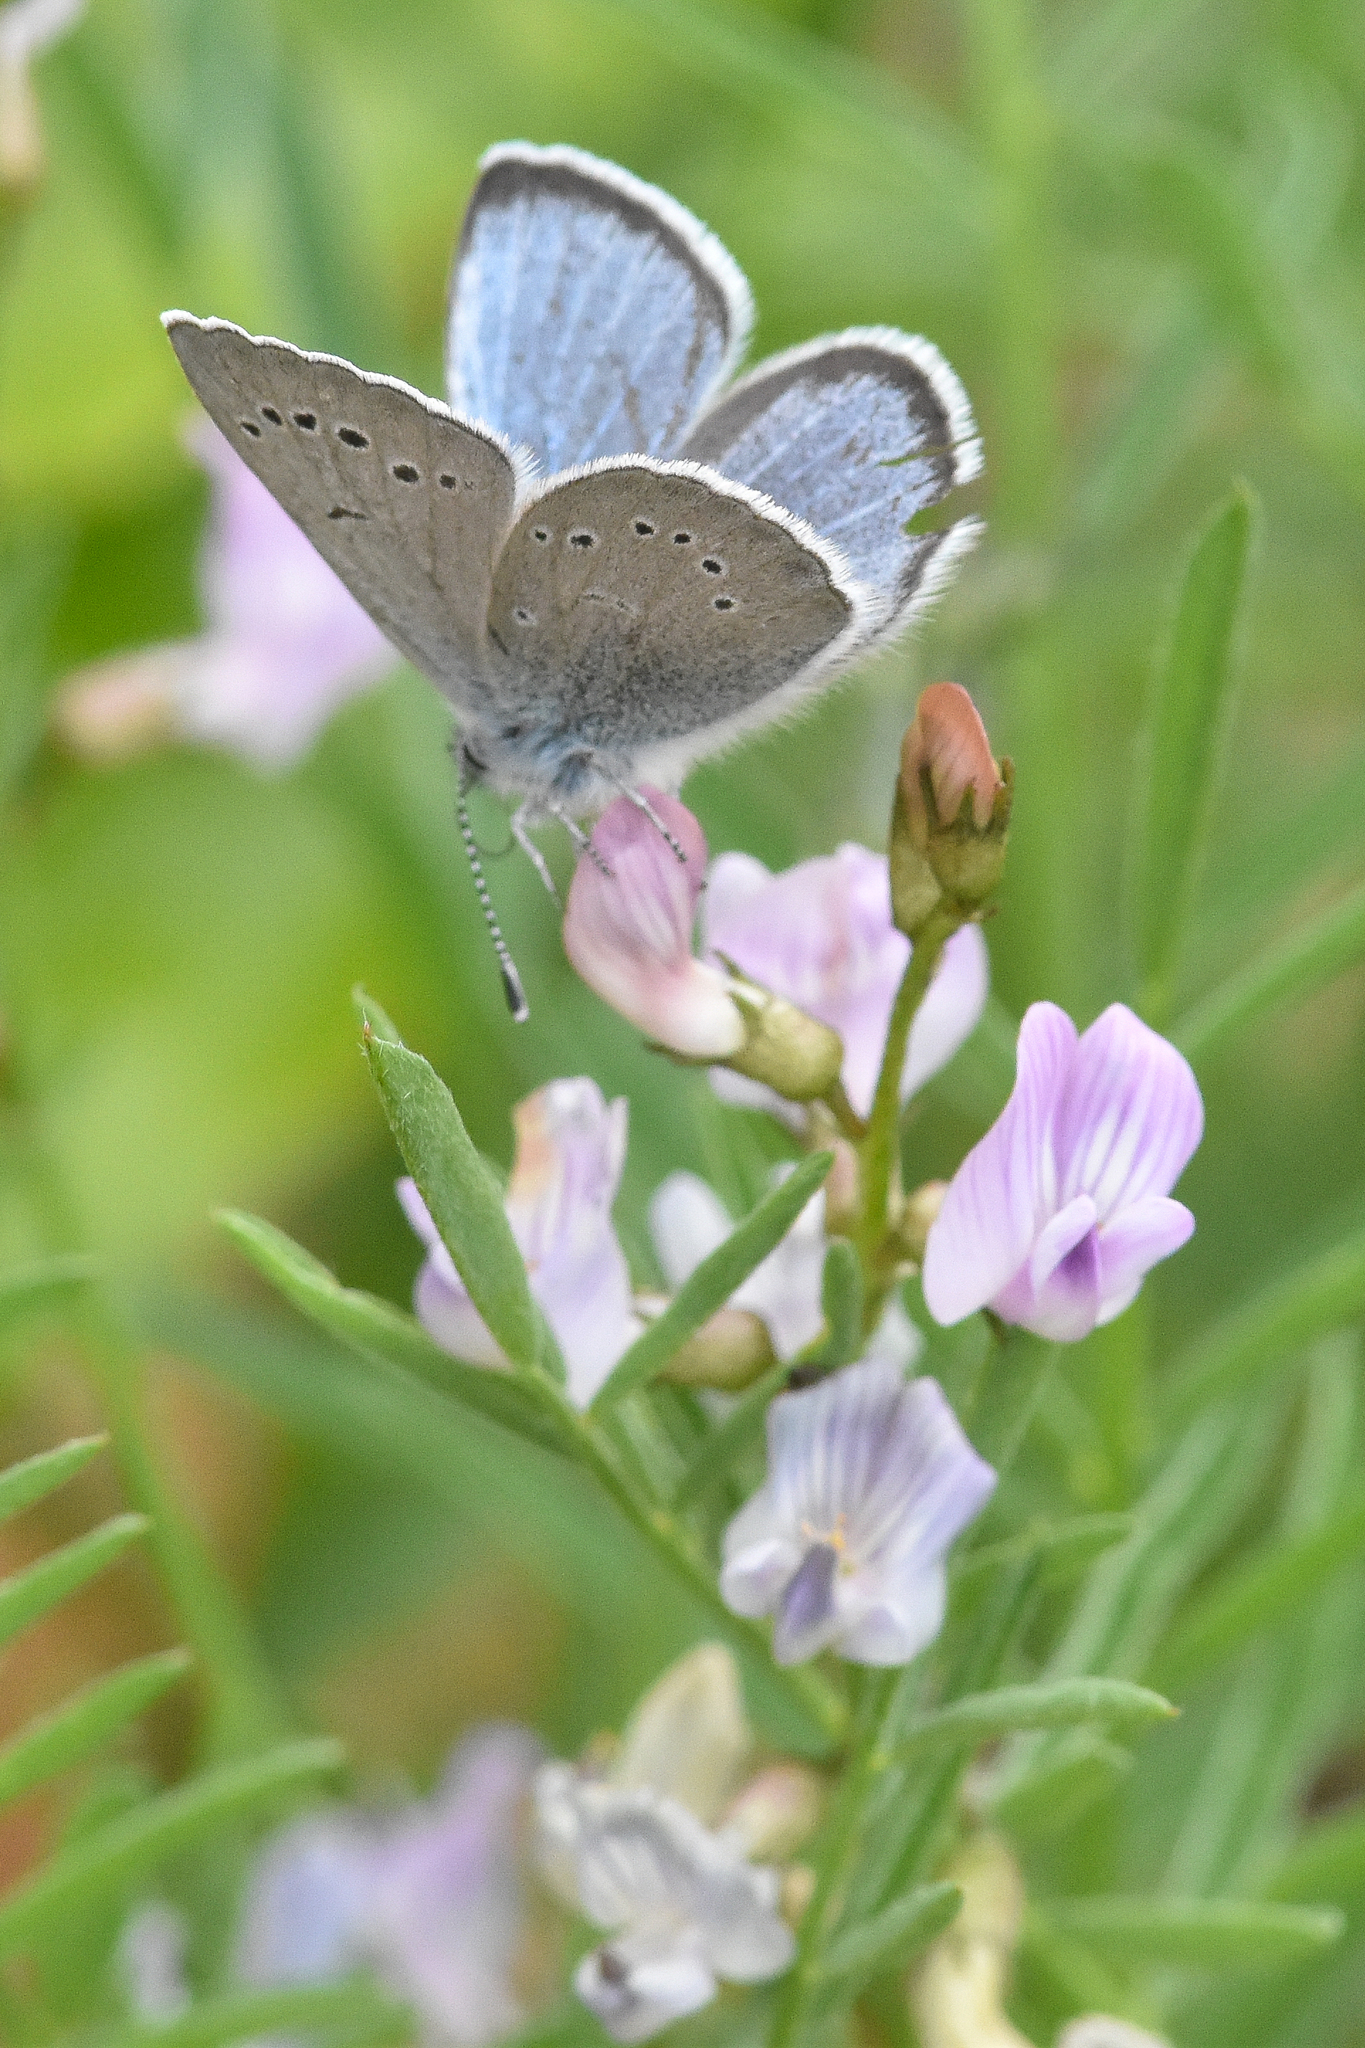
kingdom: Animalia
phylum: Arthropoda
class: Insecta
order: Lepidoptera
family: Lycaenidae
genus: Glaucopsyche
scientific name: Glaucopsyche lygdamus
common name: Silvery blue
